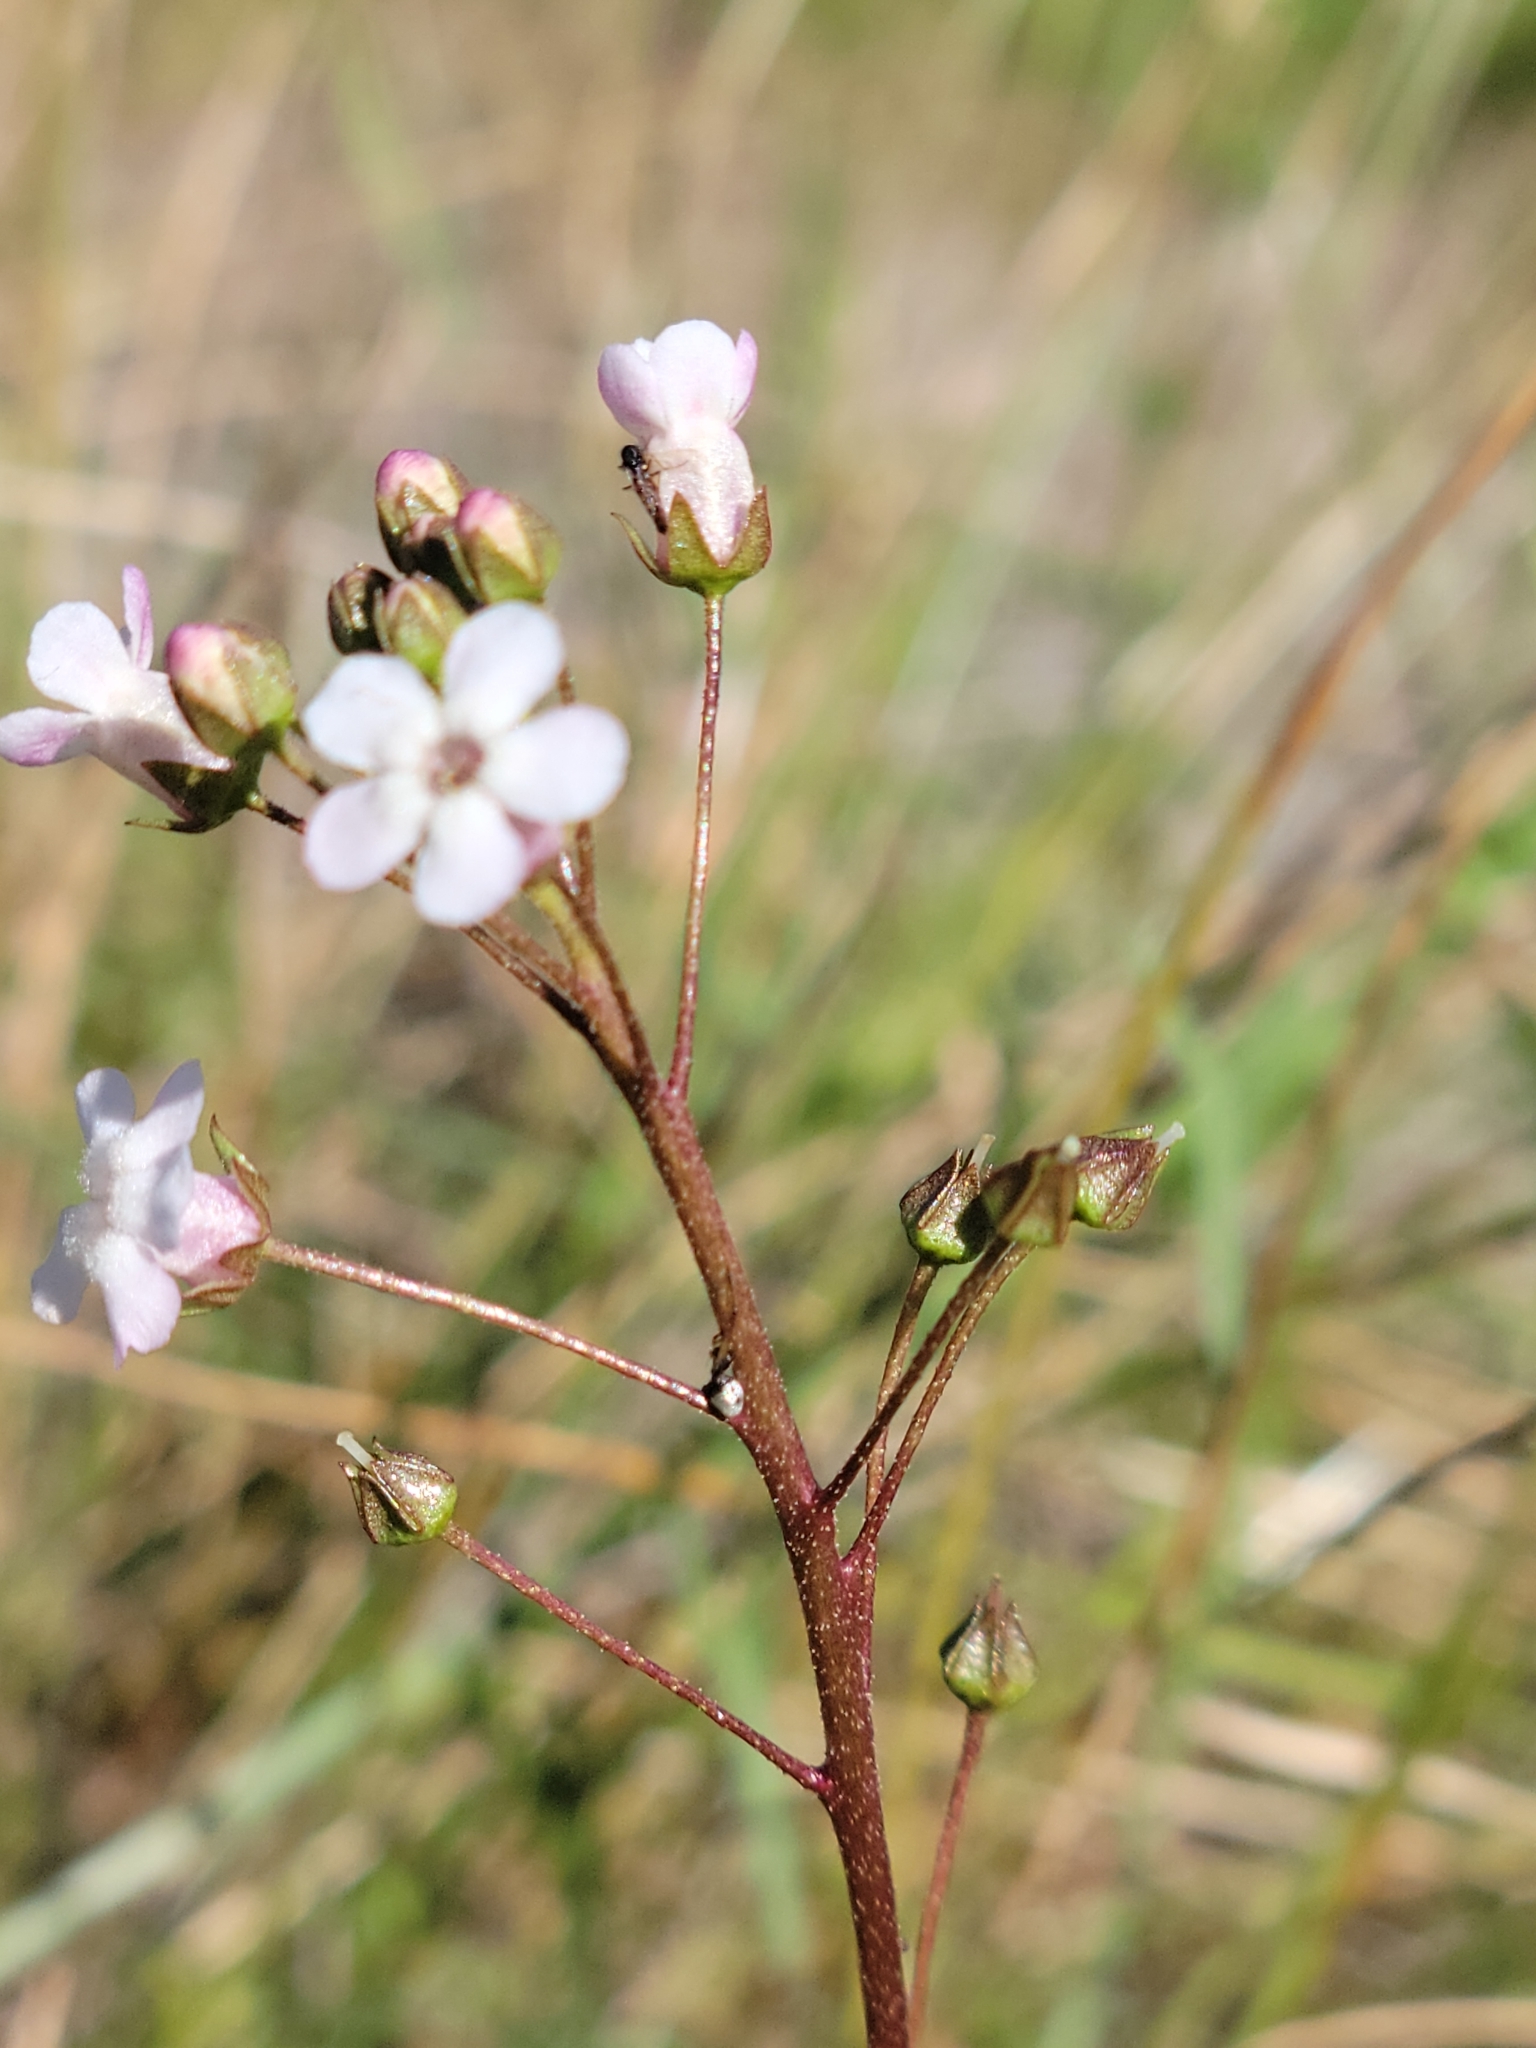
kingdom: Plantae
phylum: Tracheophyta
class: Magnoliopsida
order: Ericales
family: Primulaceae
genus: Samolus
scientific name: Samolus ebracteatus
